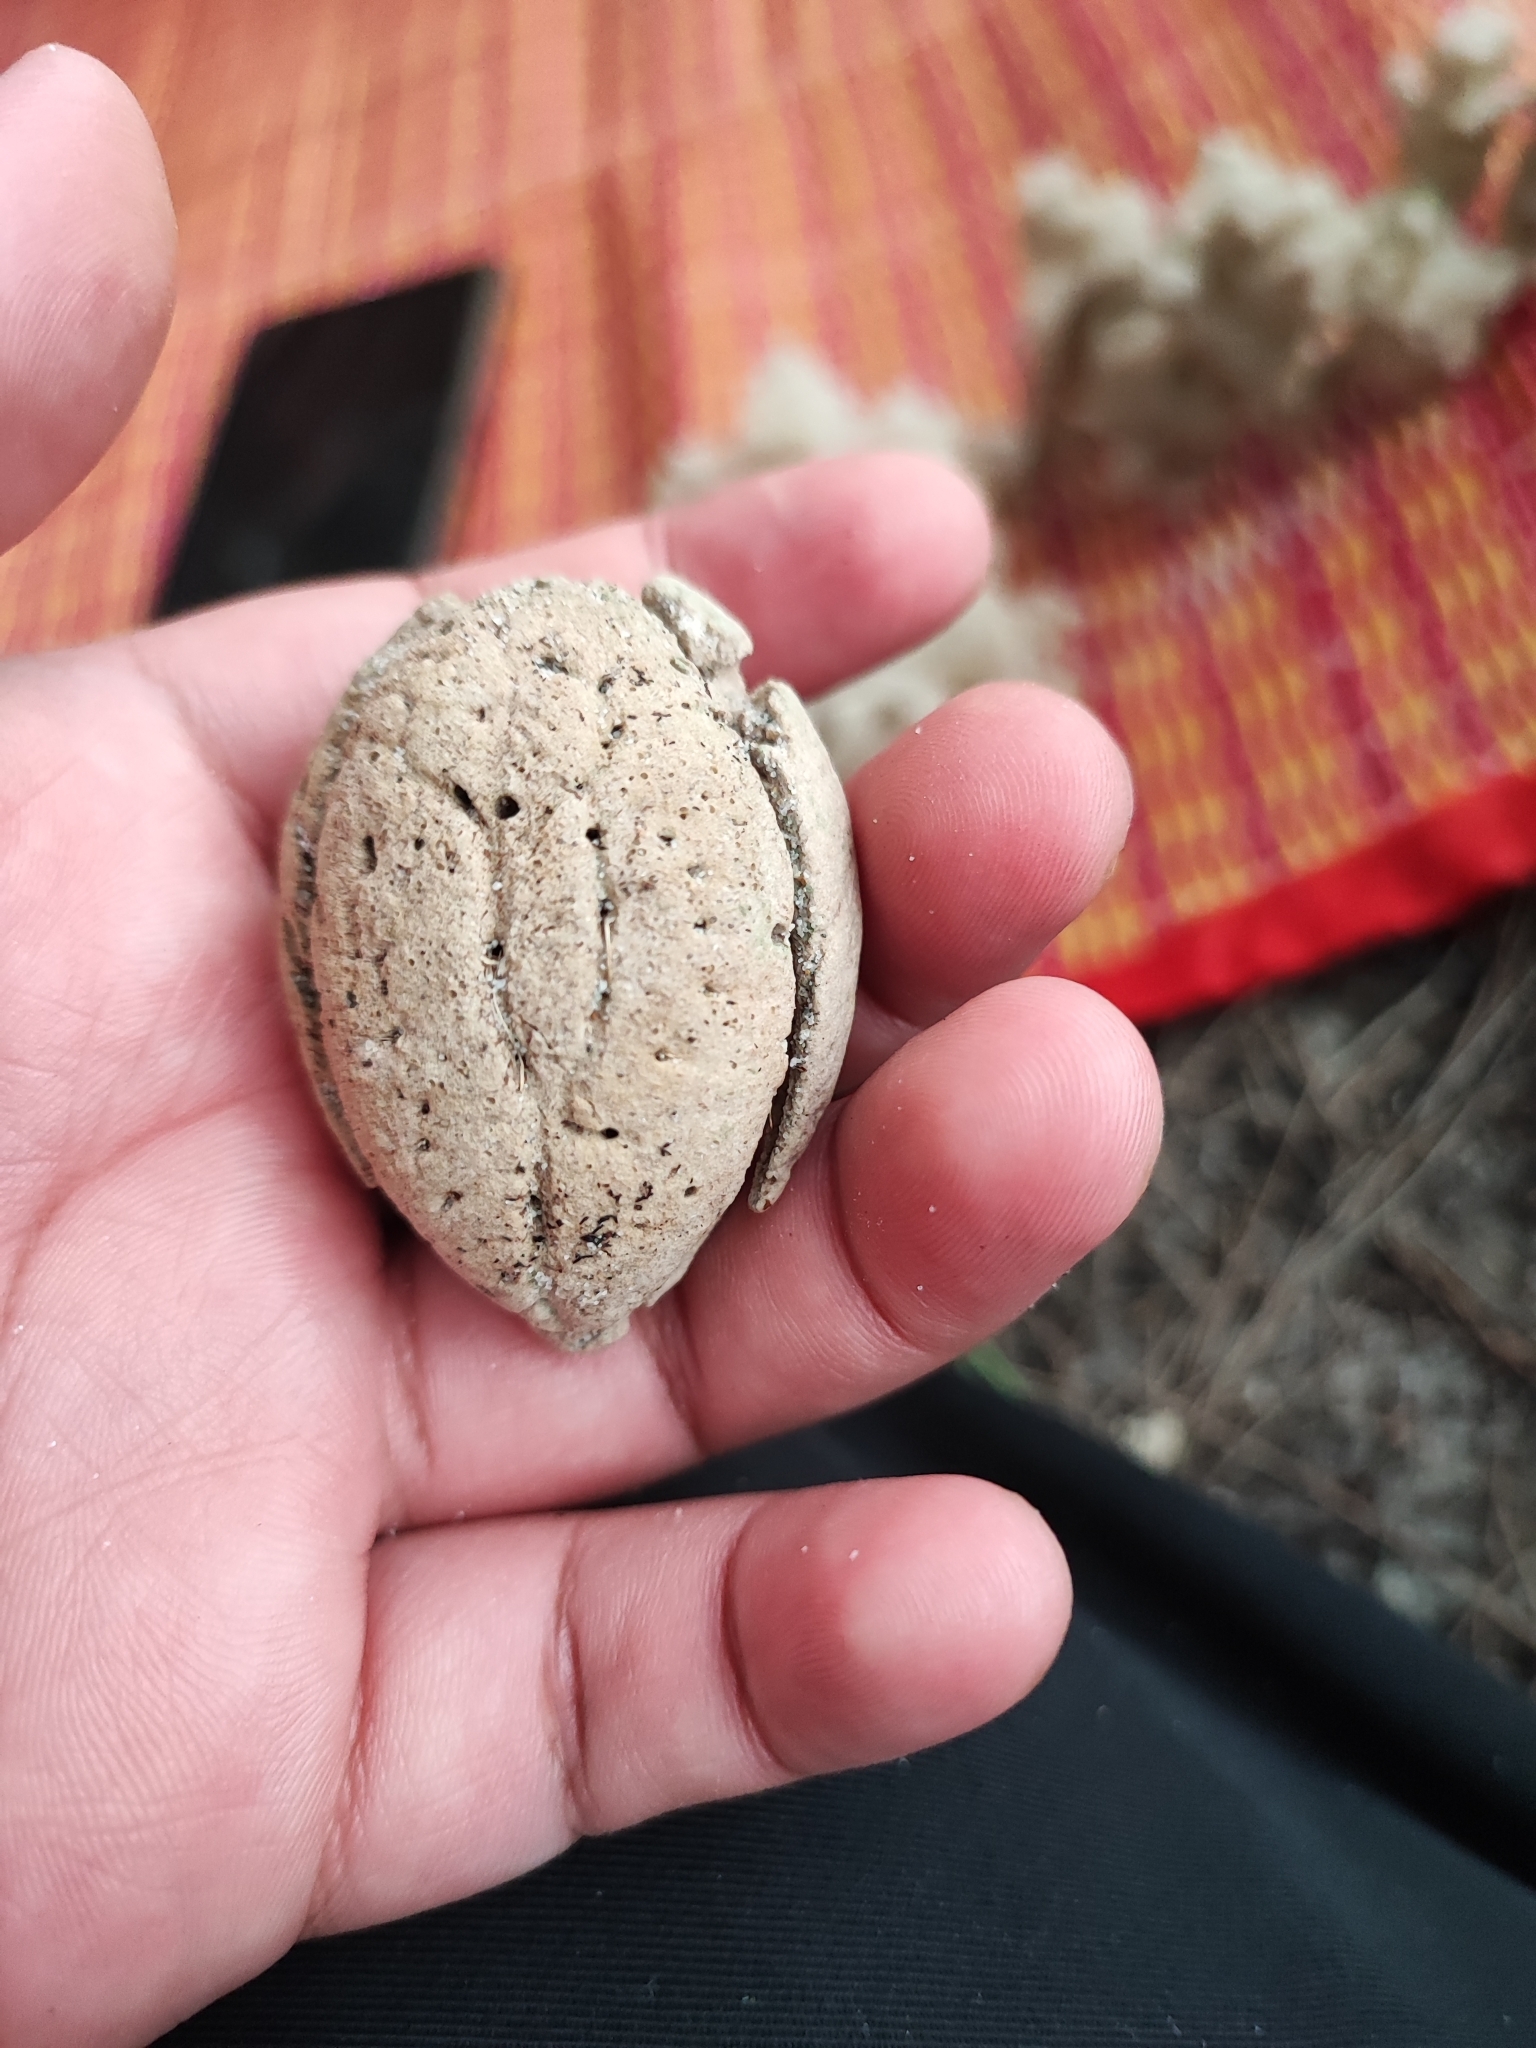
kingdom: Plantae
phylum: Tracheophyta
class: Magnoliopsida
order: Myrtales
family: Combretaceae
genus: Terminalia
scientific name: Terminalia catappa
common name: Tropical almond
